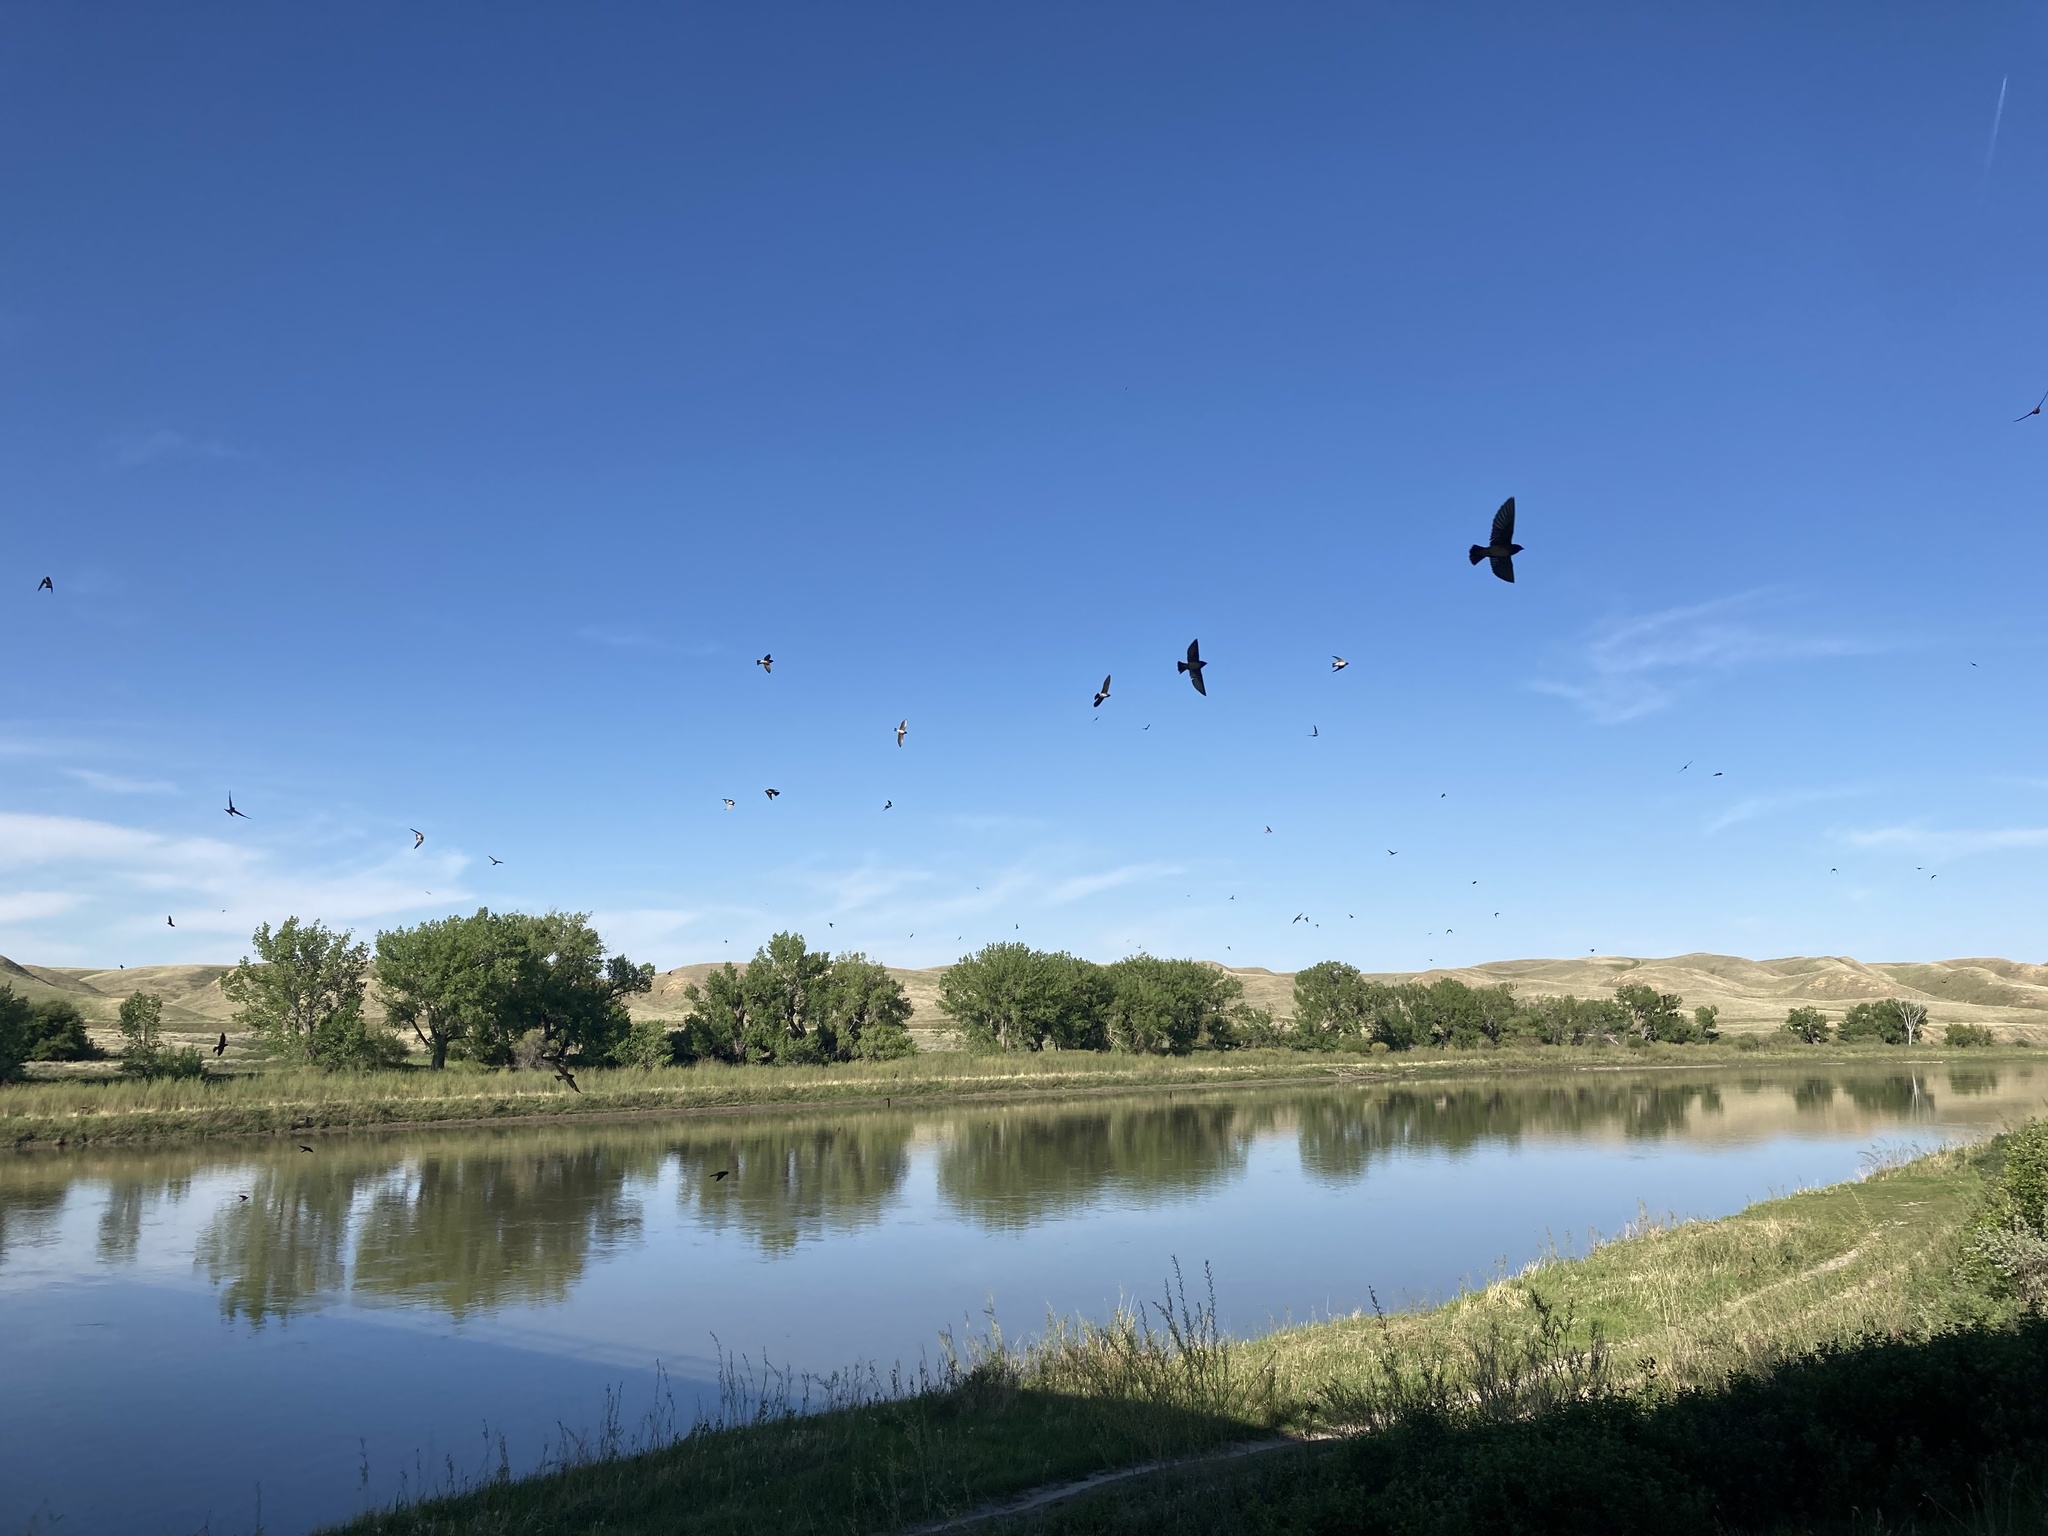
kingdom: Animalia
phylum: Chordata
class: Aves
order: Passeriformes
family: Hirundinidae
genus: Petrochelidon
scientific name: Petrochelidon pyrrhonota
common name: American cliff swallow
